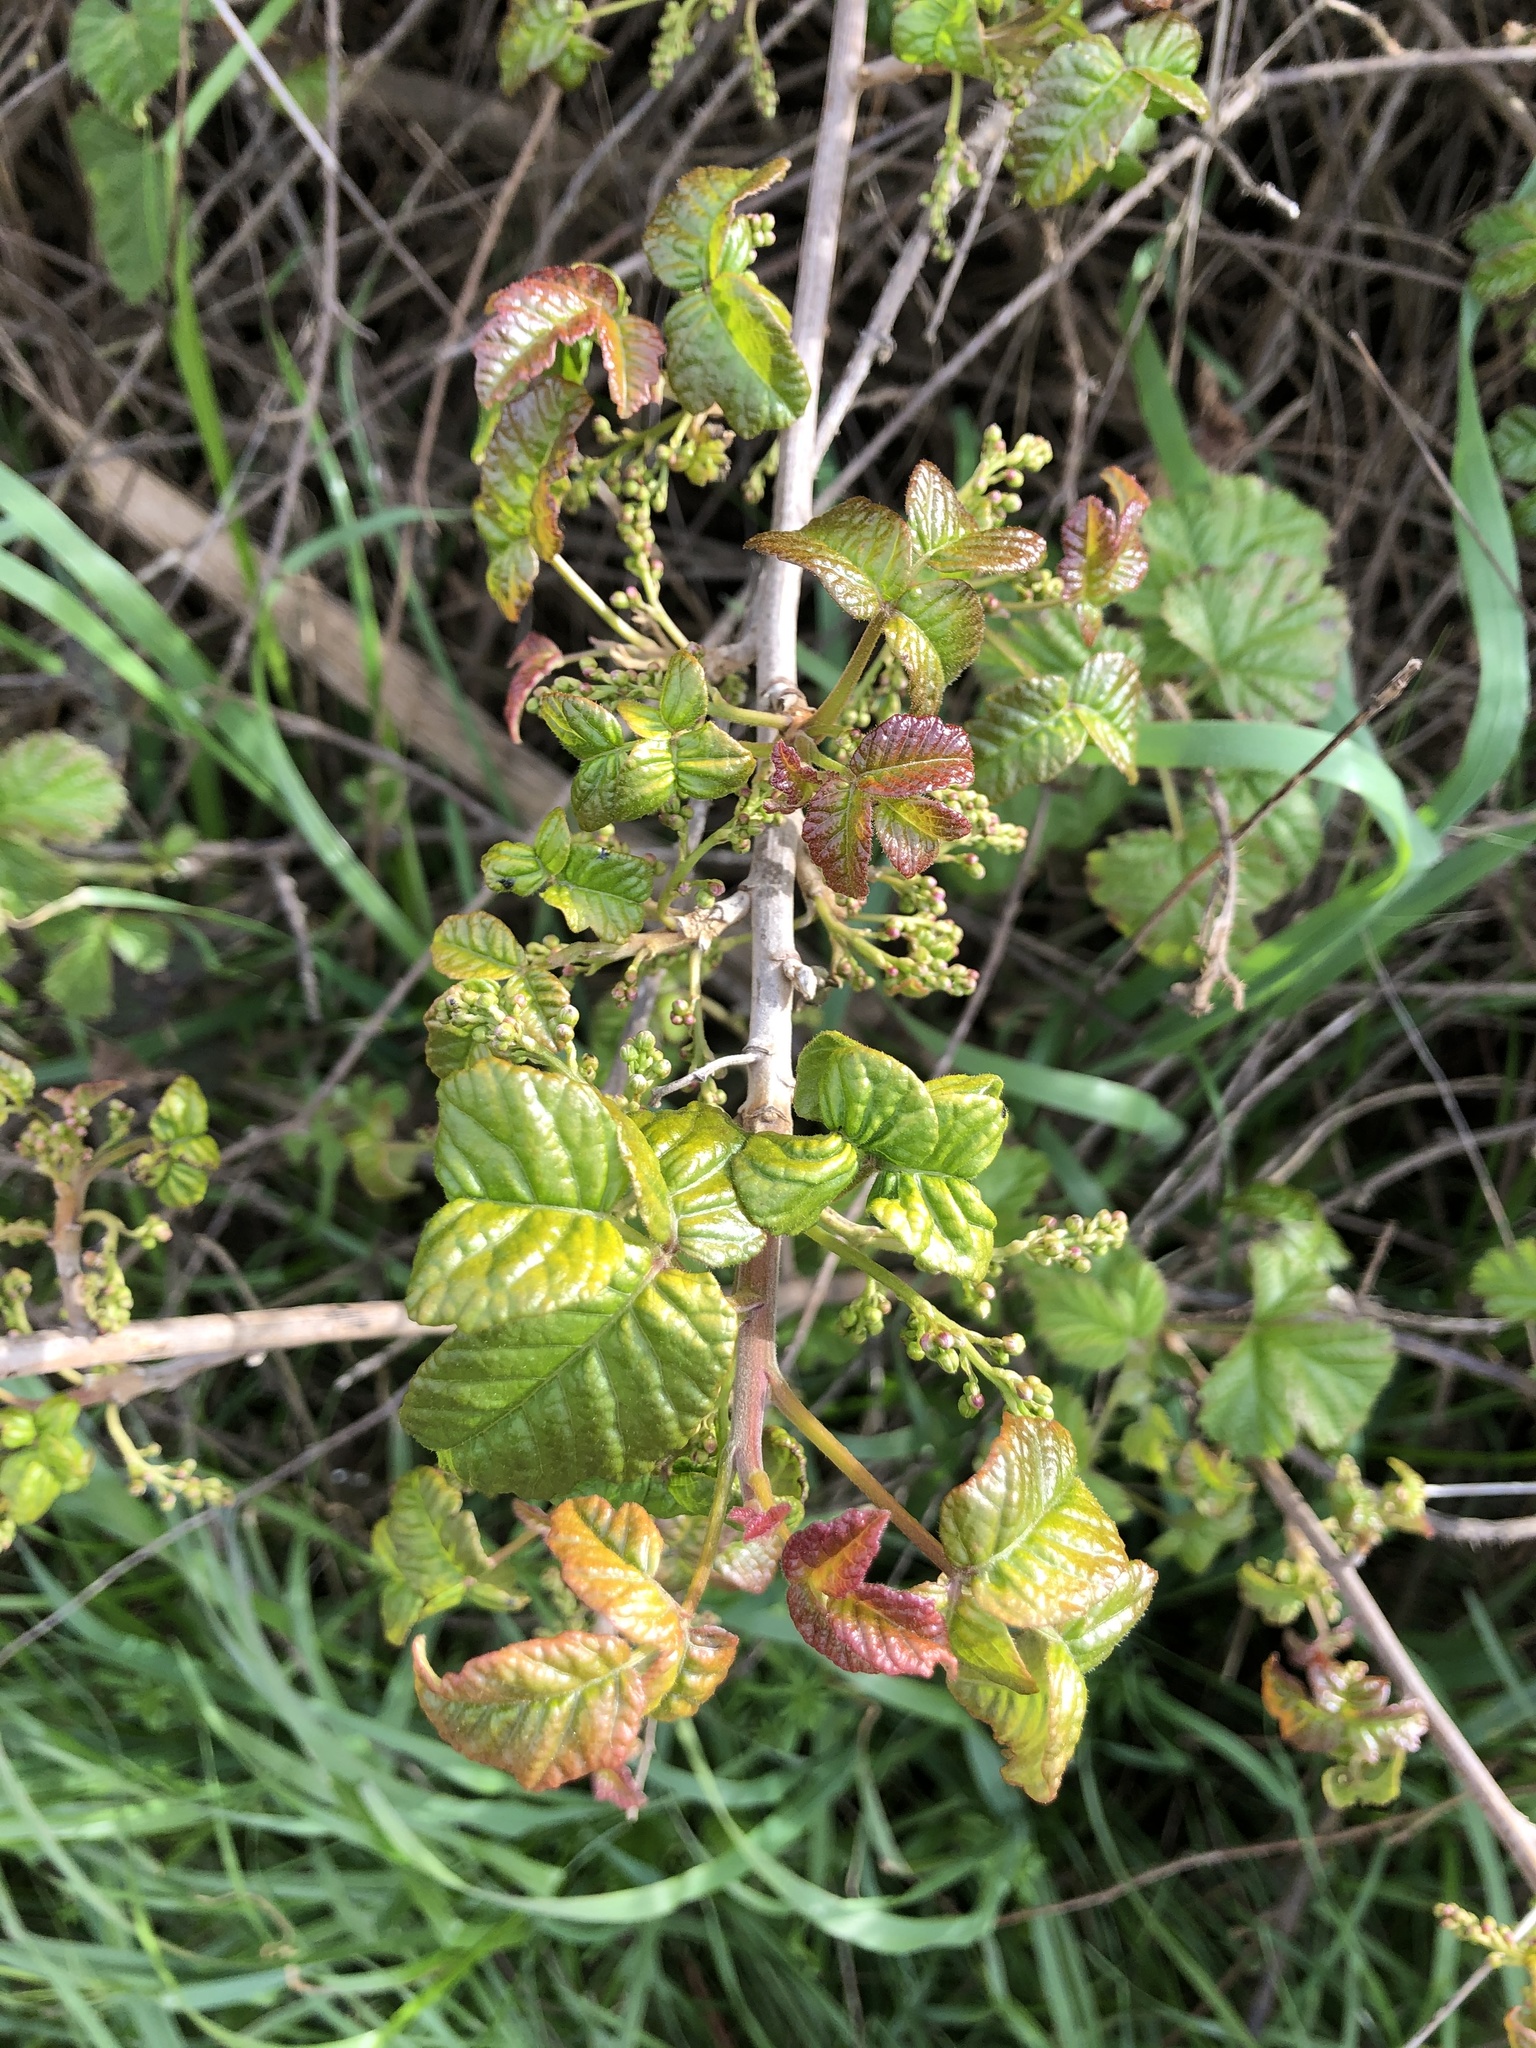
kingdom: Plantae
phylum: Tracheophyta
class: Magnoliopsida
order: Sapindales
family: Anacardiaceae
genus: Toxicodendron
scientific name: Toxicodendron diversilobum
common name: Pacific poison-oak
